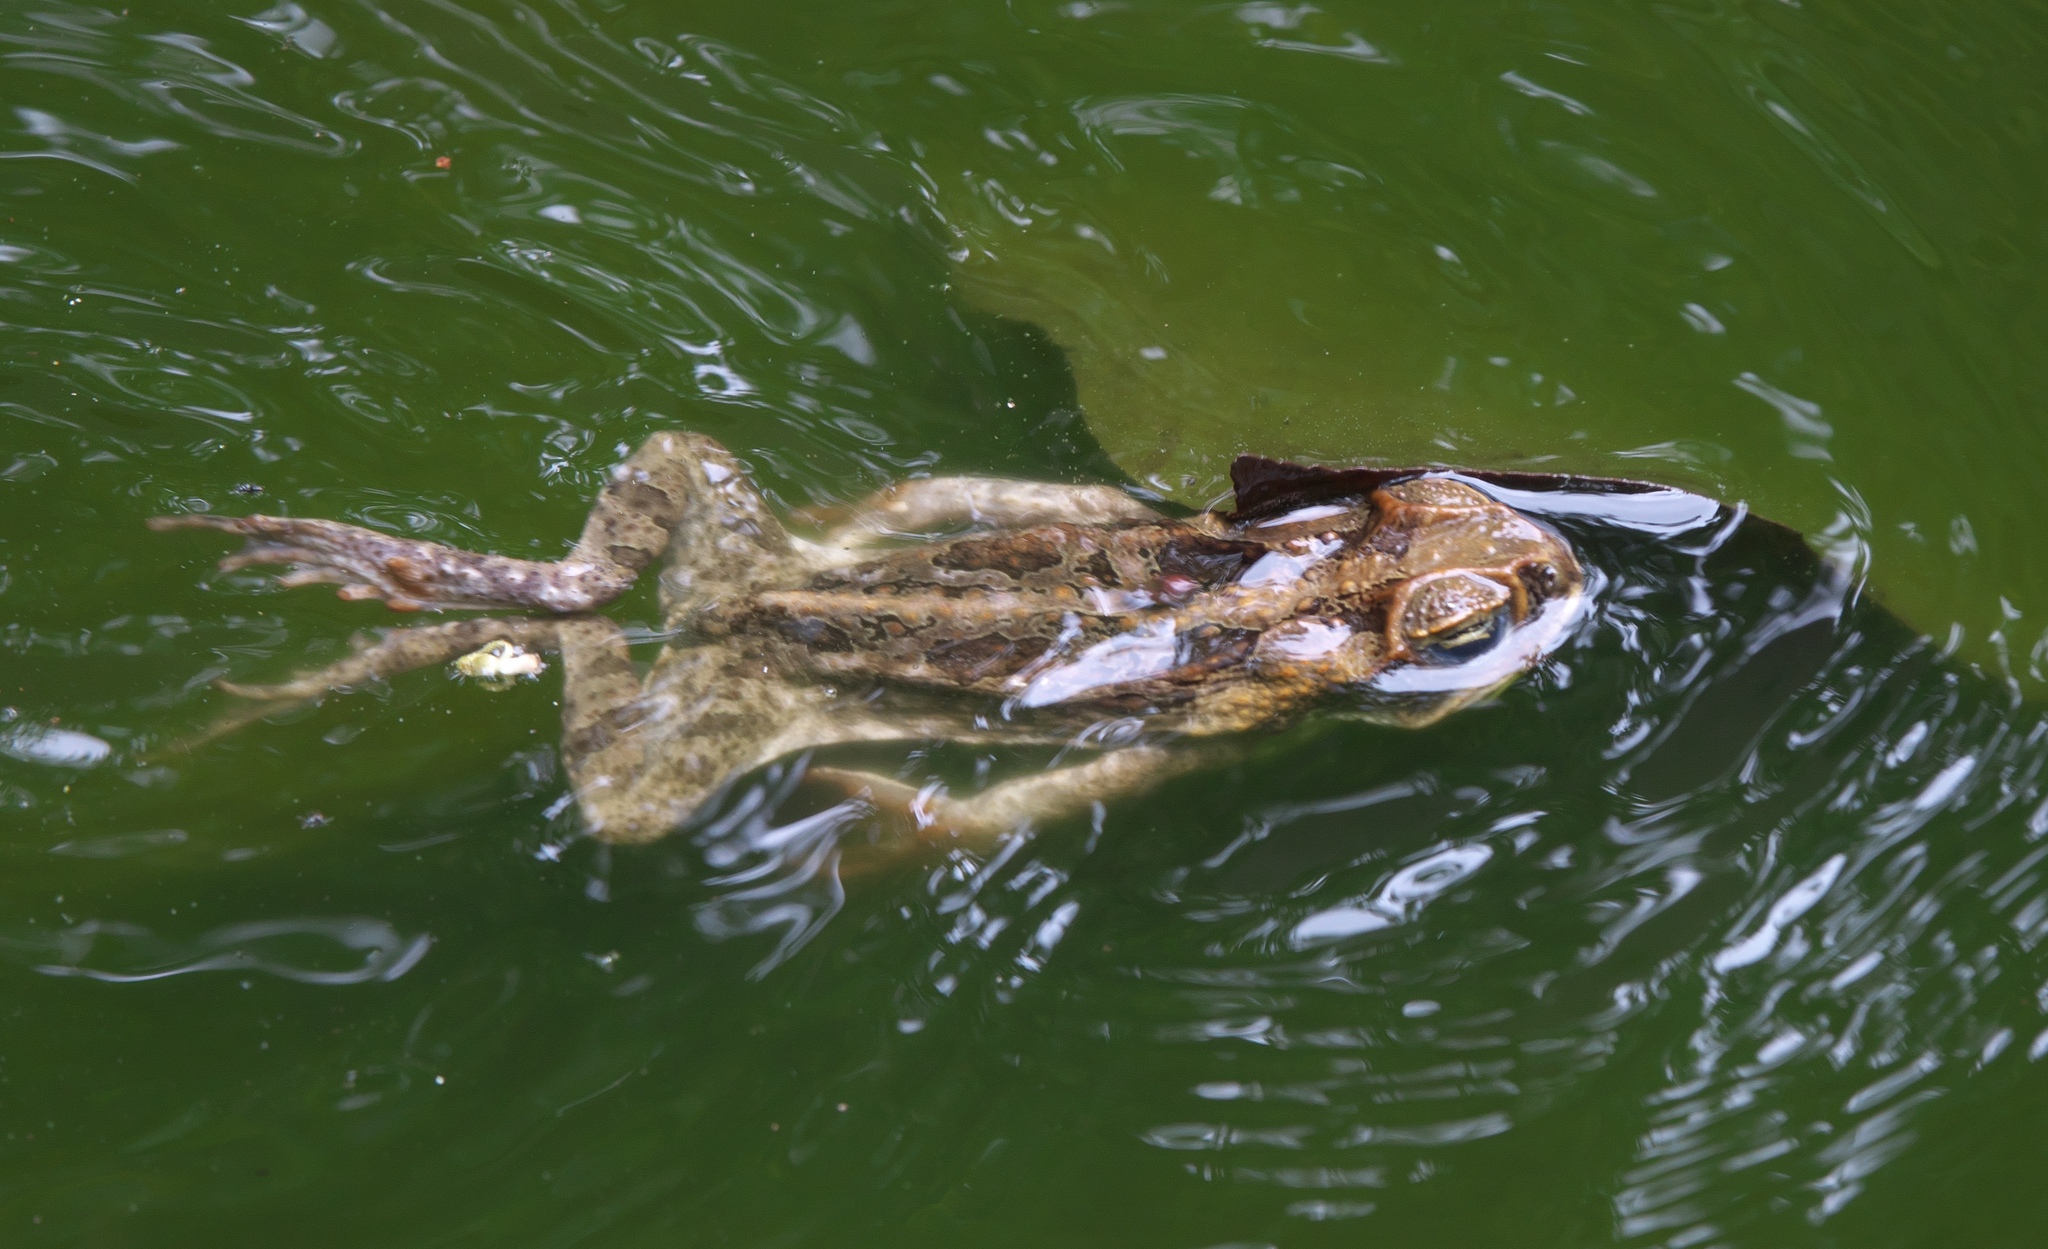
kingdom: Animalia
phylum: Chordata
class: Amphibia
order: Anura
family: Bufonidae
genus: Rhinella
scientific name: Rhinella marina
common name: Cane toad
